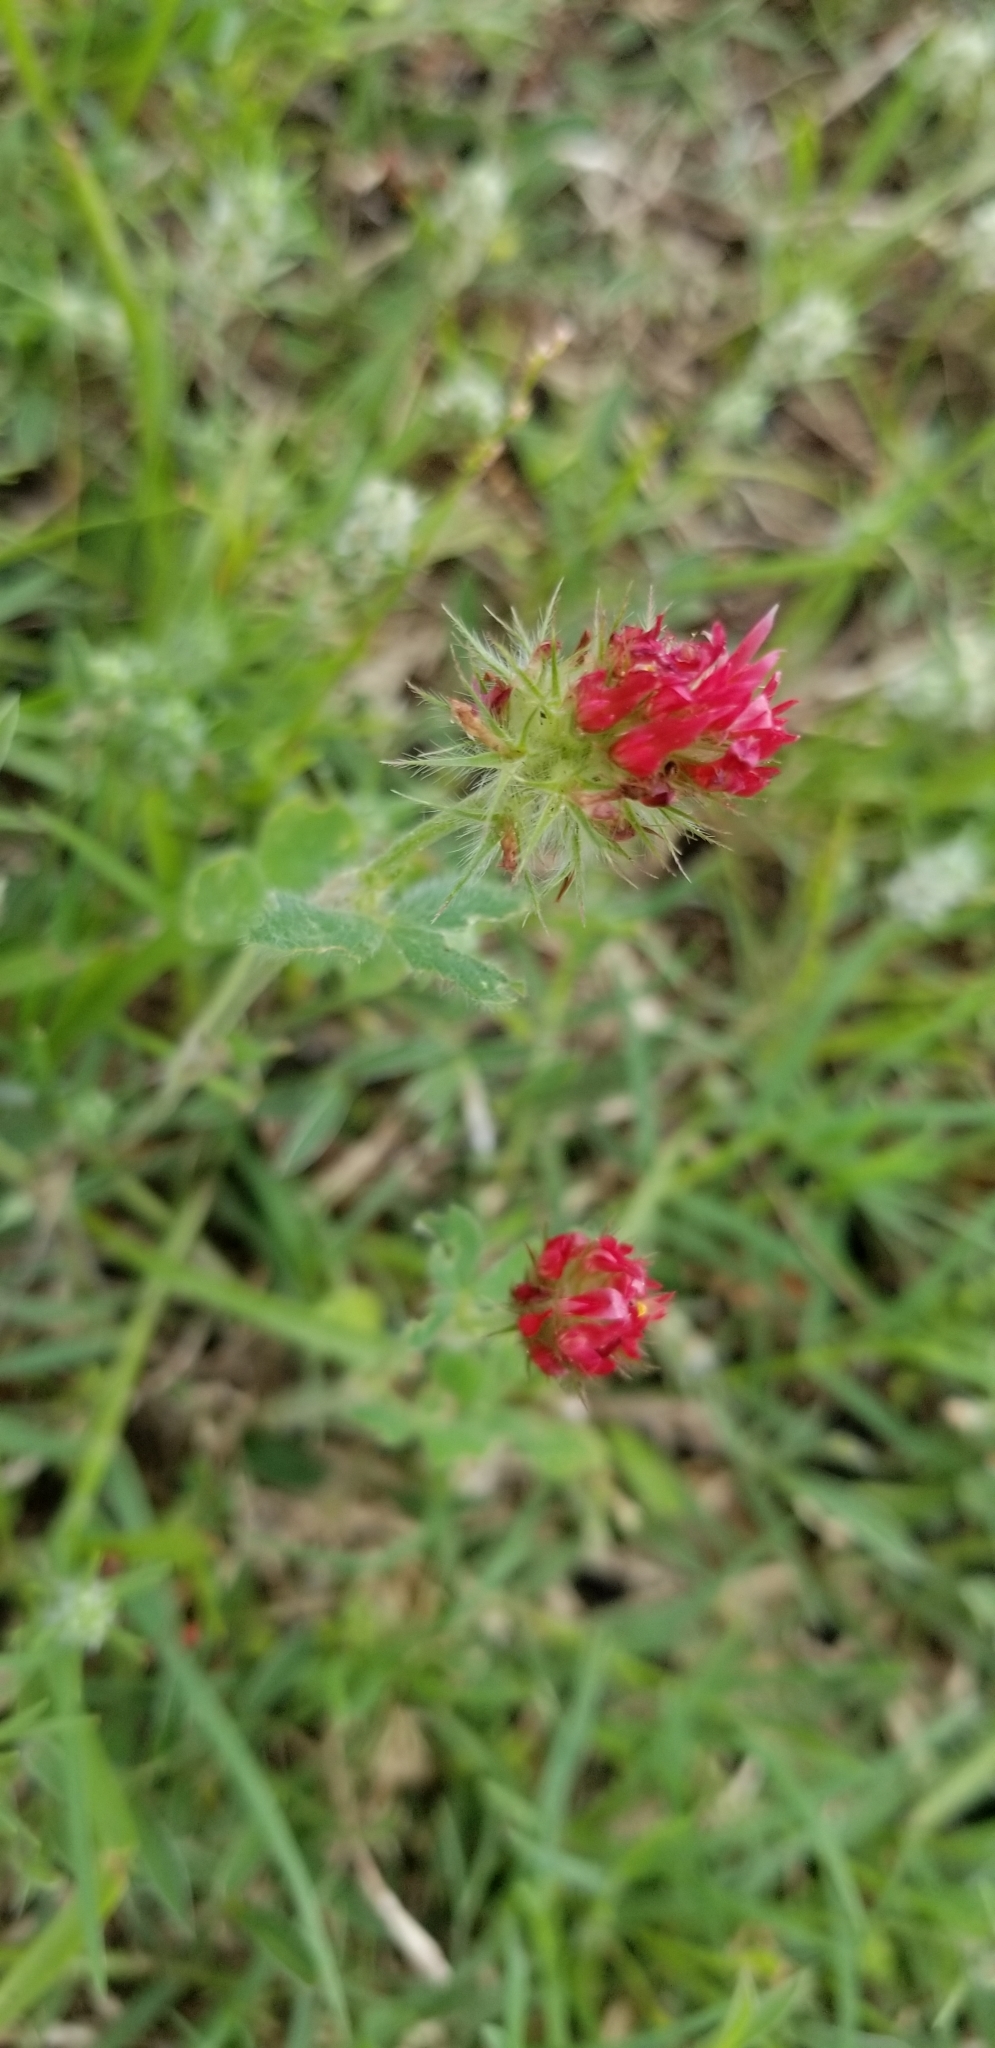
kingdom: Plantae
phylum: Tracheophyta
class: Magnoliopsida
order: Fabales
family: Fabaceae
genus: Trifolium
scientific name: Trifolium incarnatum
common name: Crimson clover
